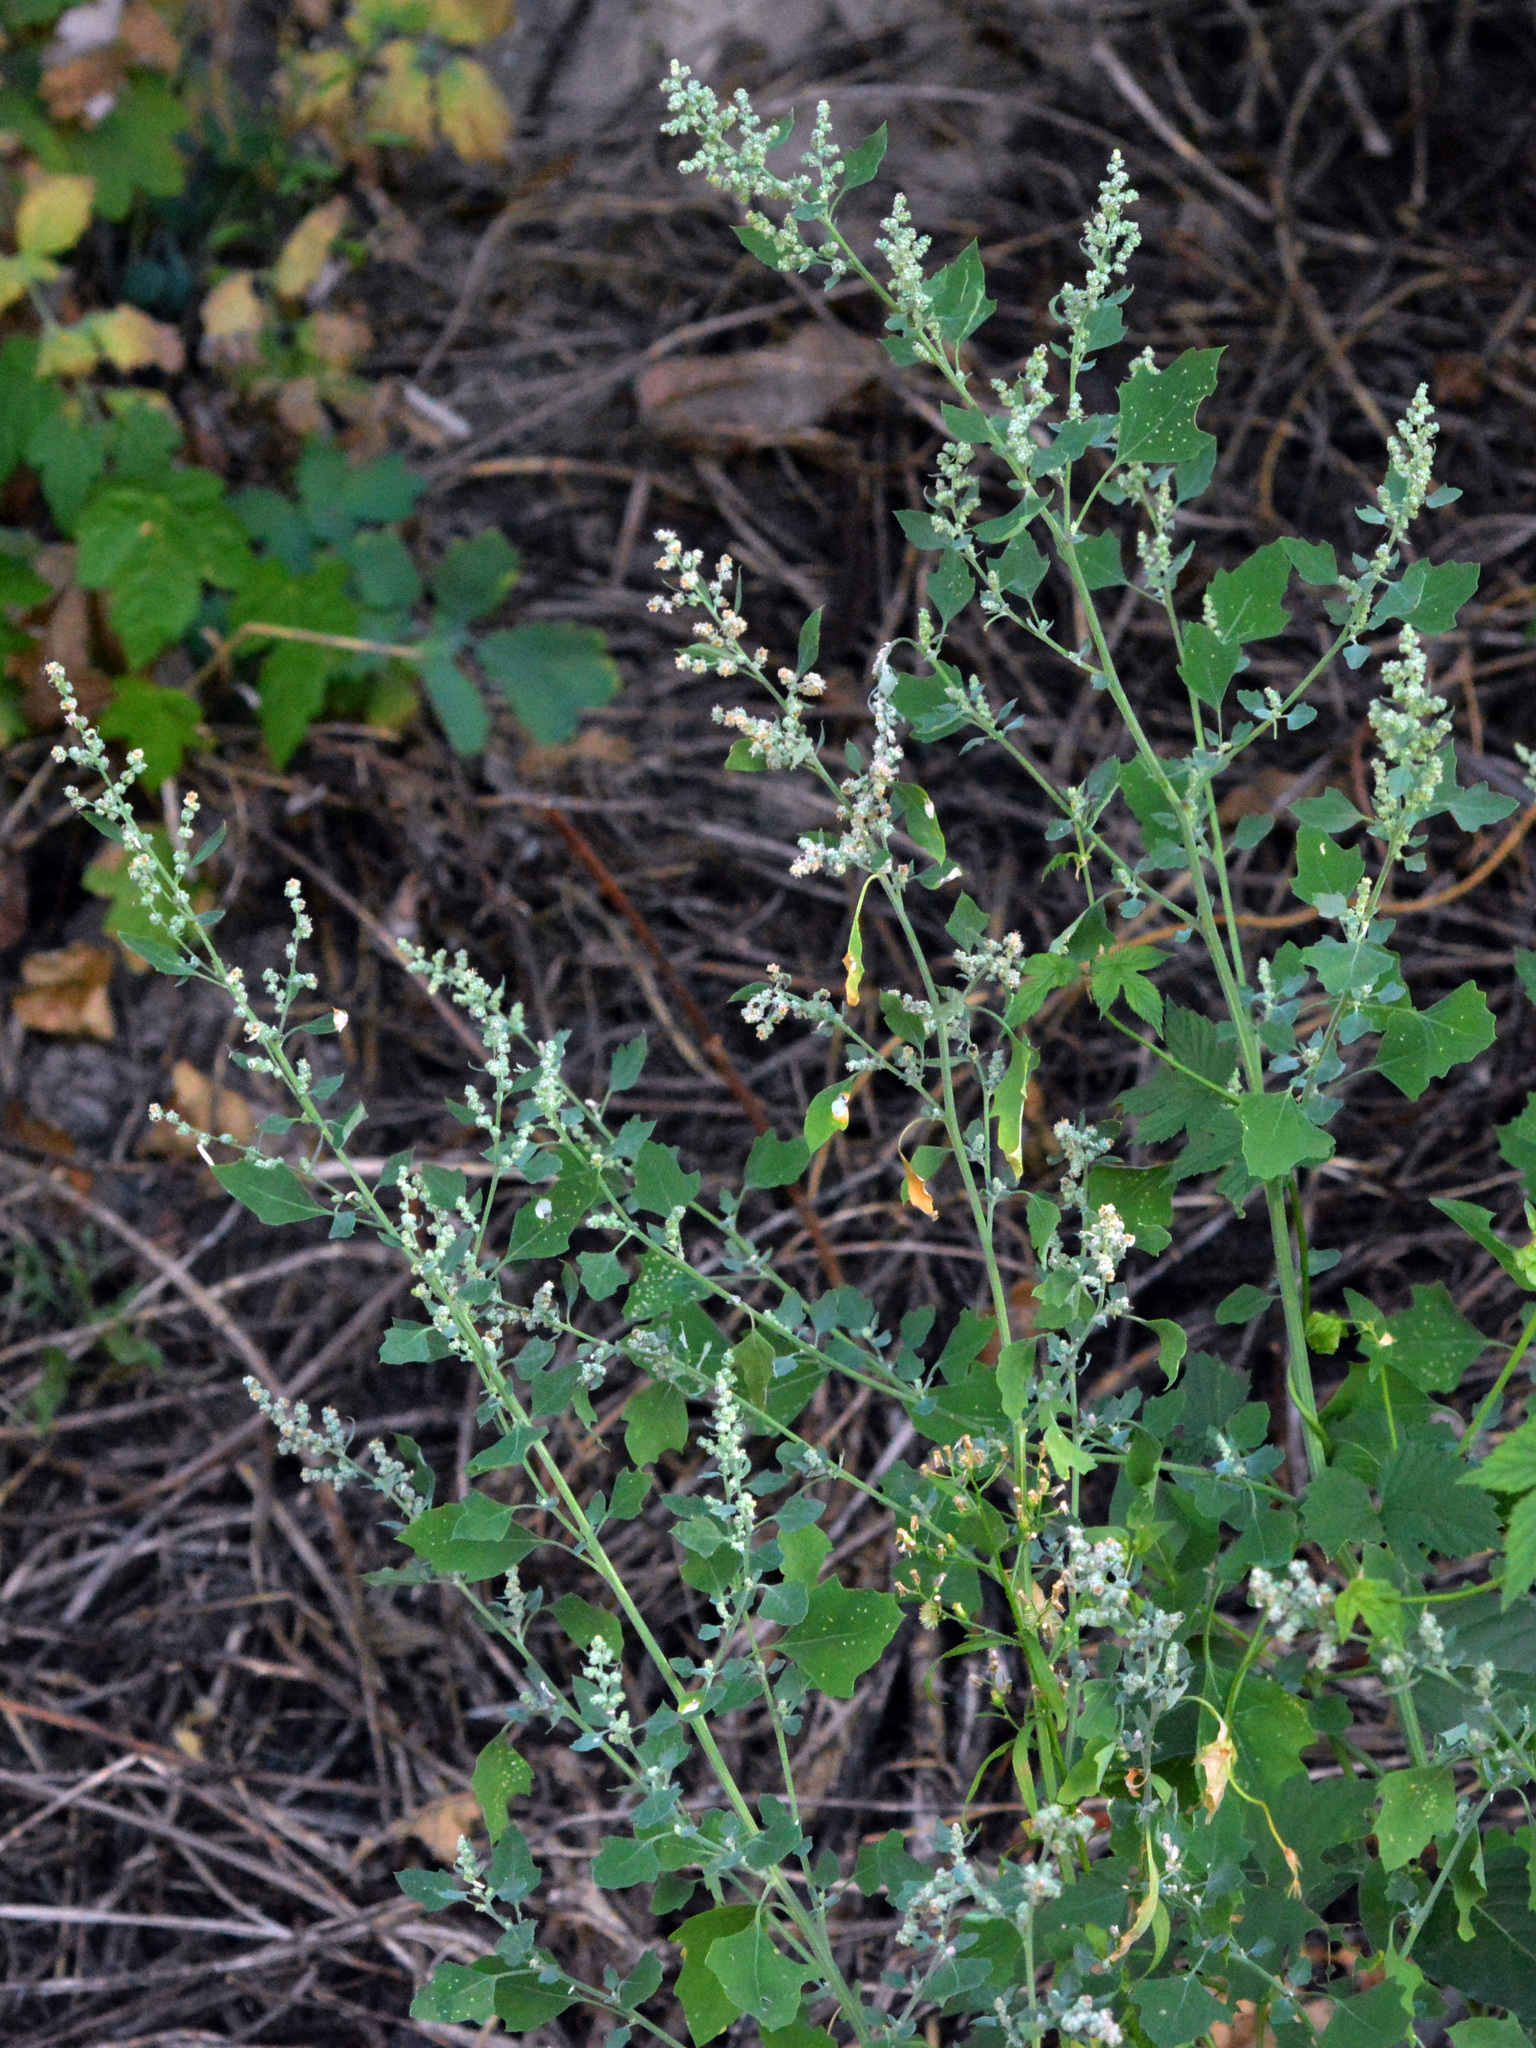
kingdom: Plantae
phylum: Tracheophyta
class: Magnoliopsida
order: Caryophyllales
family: Amaranthaceae
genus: Chenopodium
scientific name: Chenopodium opulifolium
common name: Grey goosefoot
